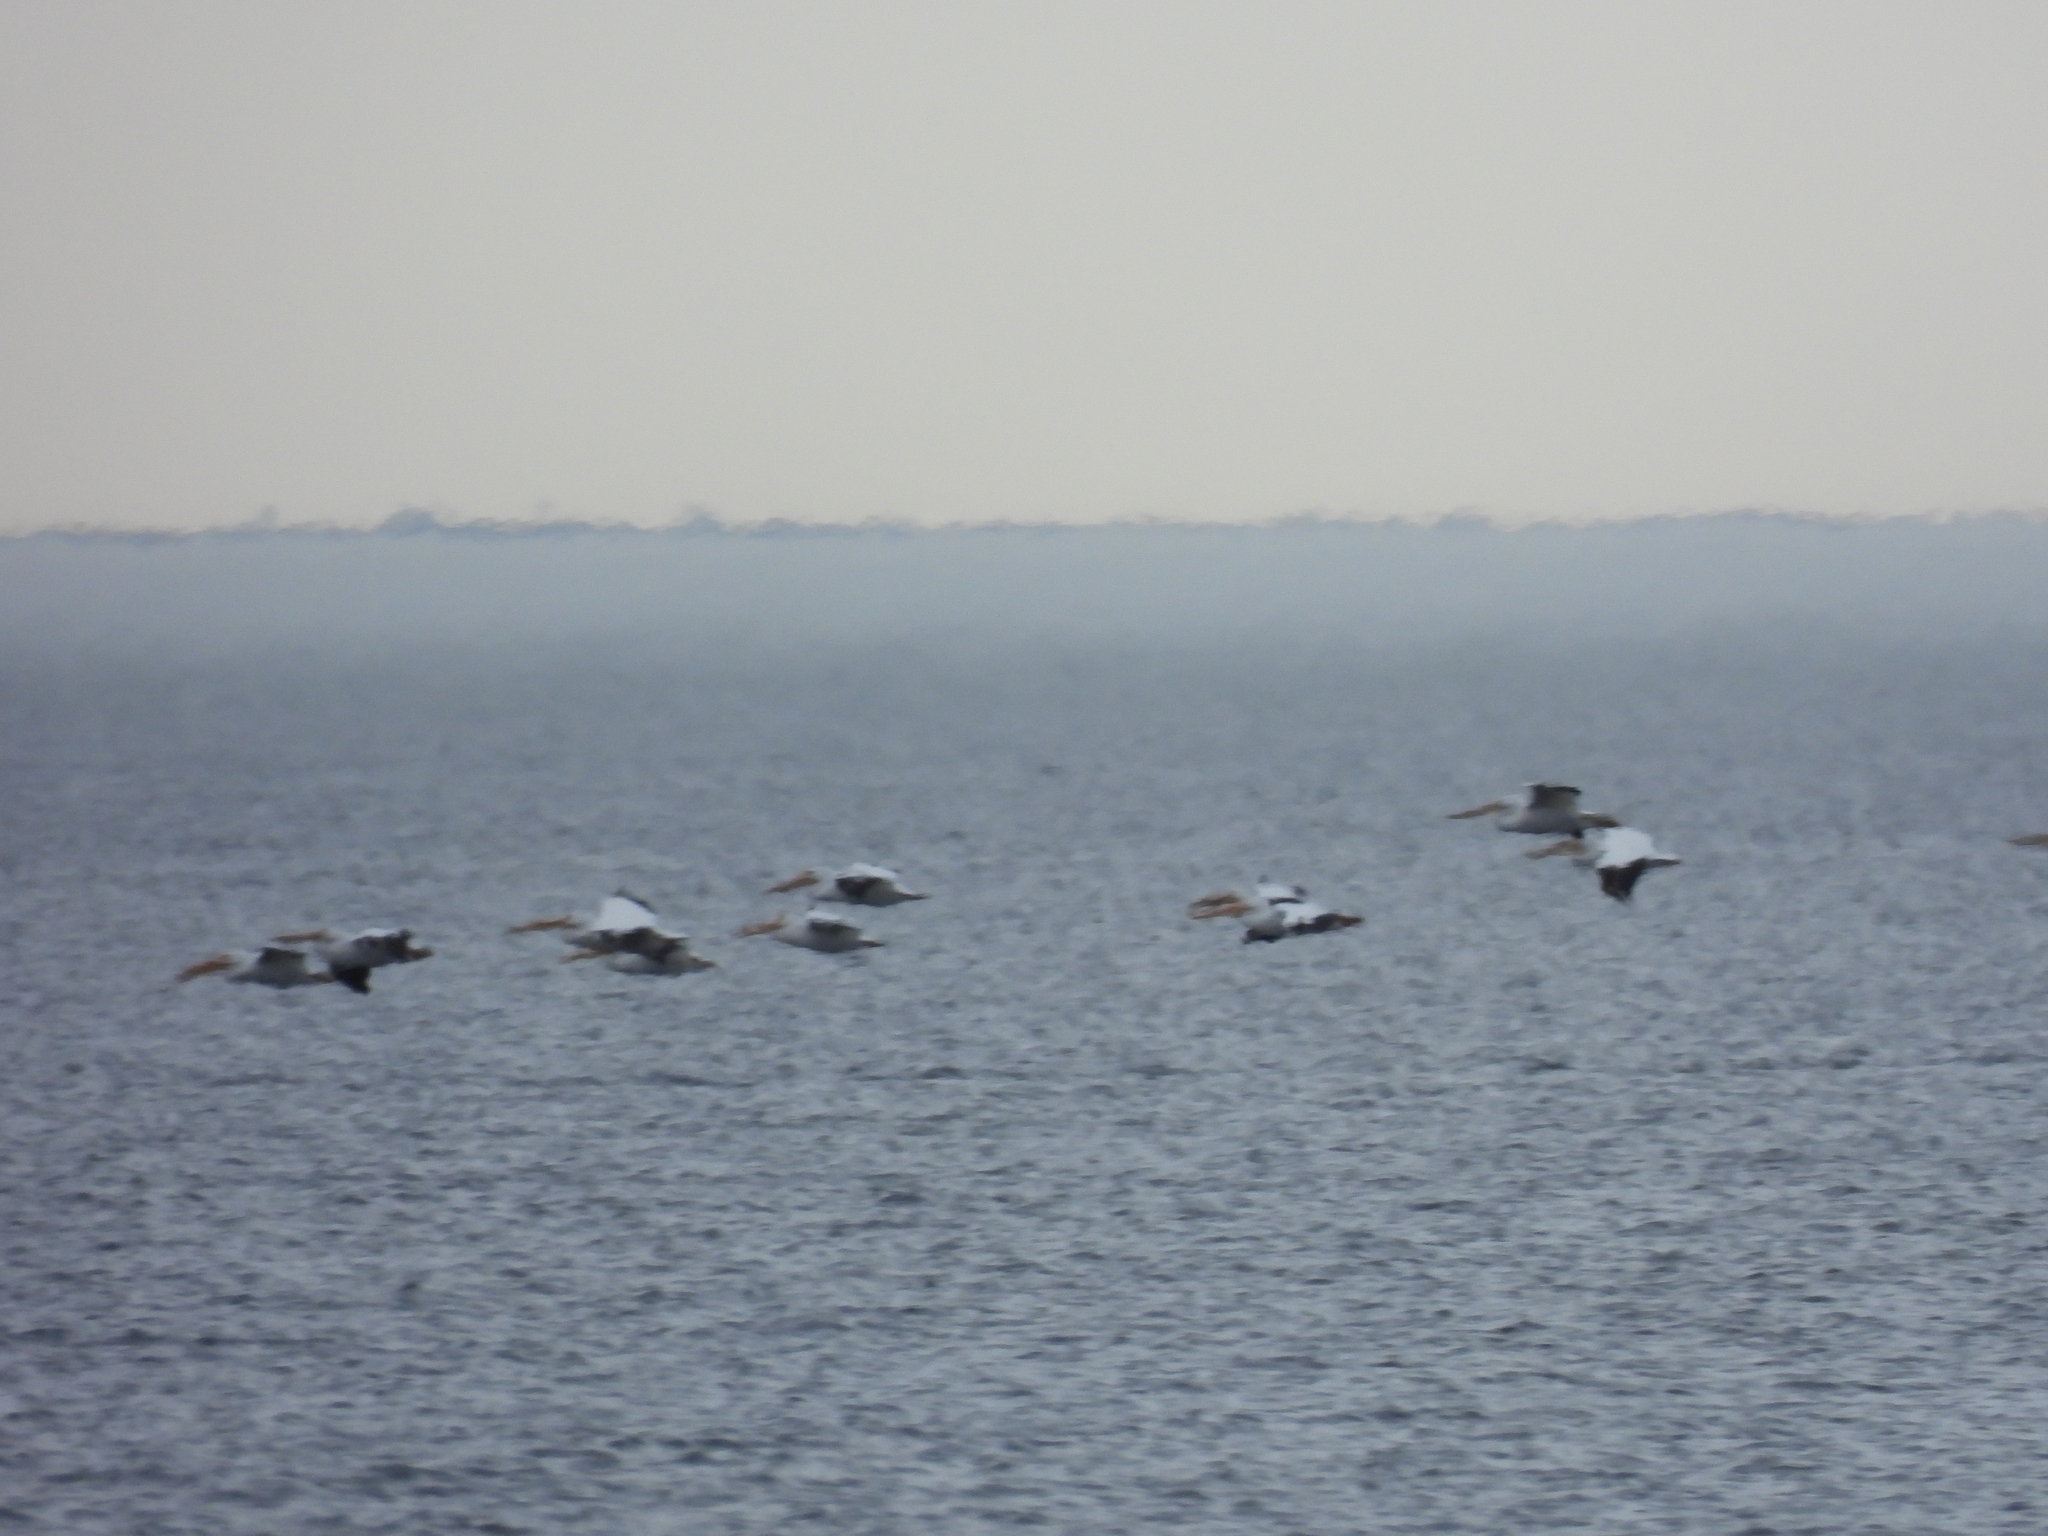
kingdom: Animalia
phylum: Chordata
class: Aves
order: Pelecaniformes
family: Pelecanidae
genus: Pelecanus
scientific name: Pelecanus erythrorhynchos
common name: American white pelican
